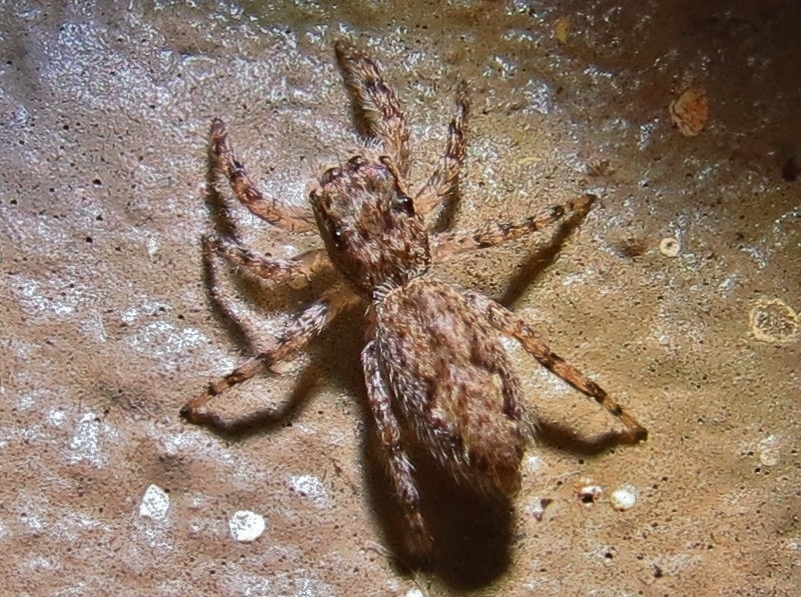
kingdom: Animalia
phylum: Arthropoda
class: Arachnida
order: Araneae
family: Salticidae
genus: Platycryptus
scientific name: Platycryptus undatus
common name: Tan jumping spider
